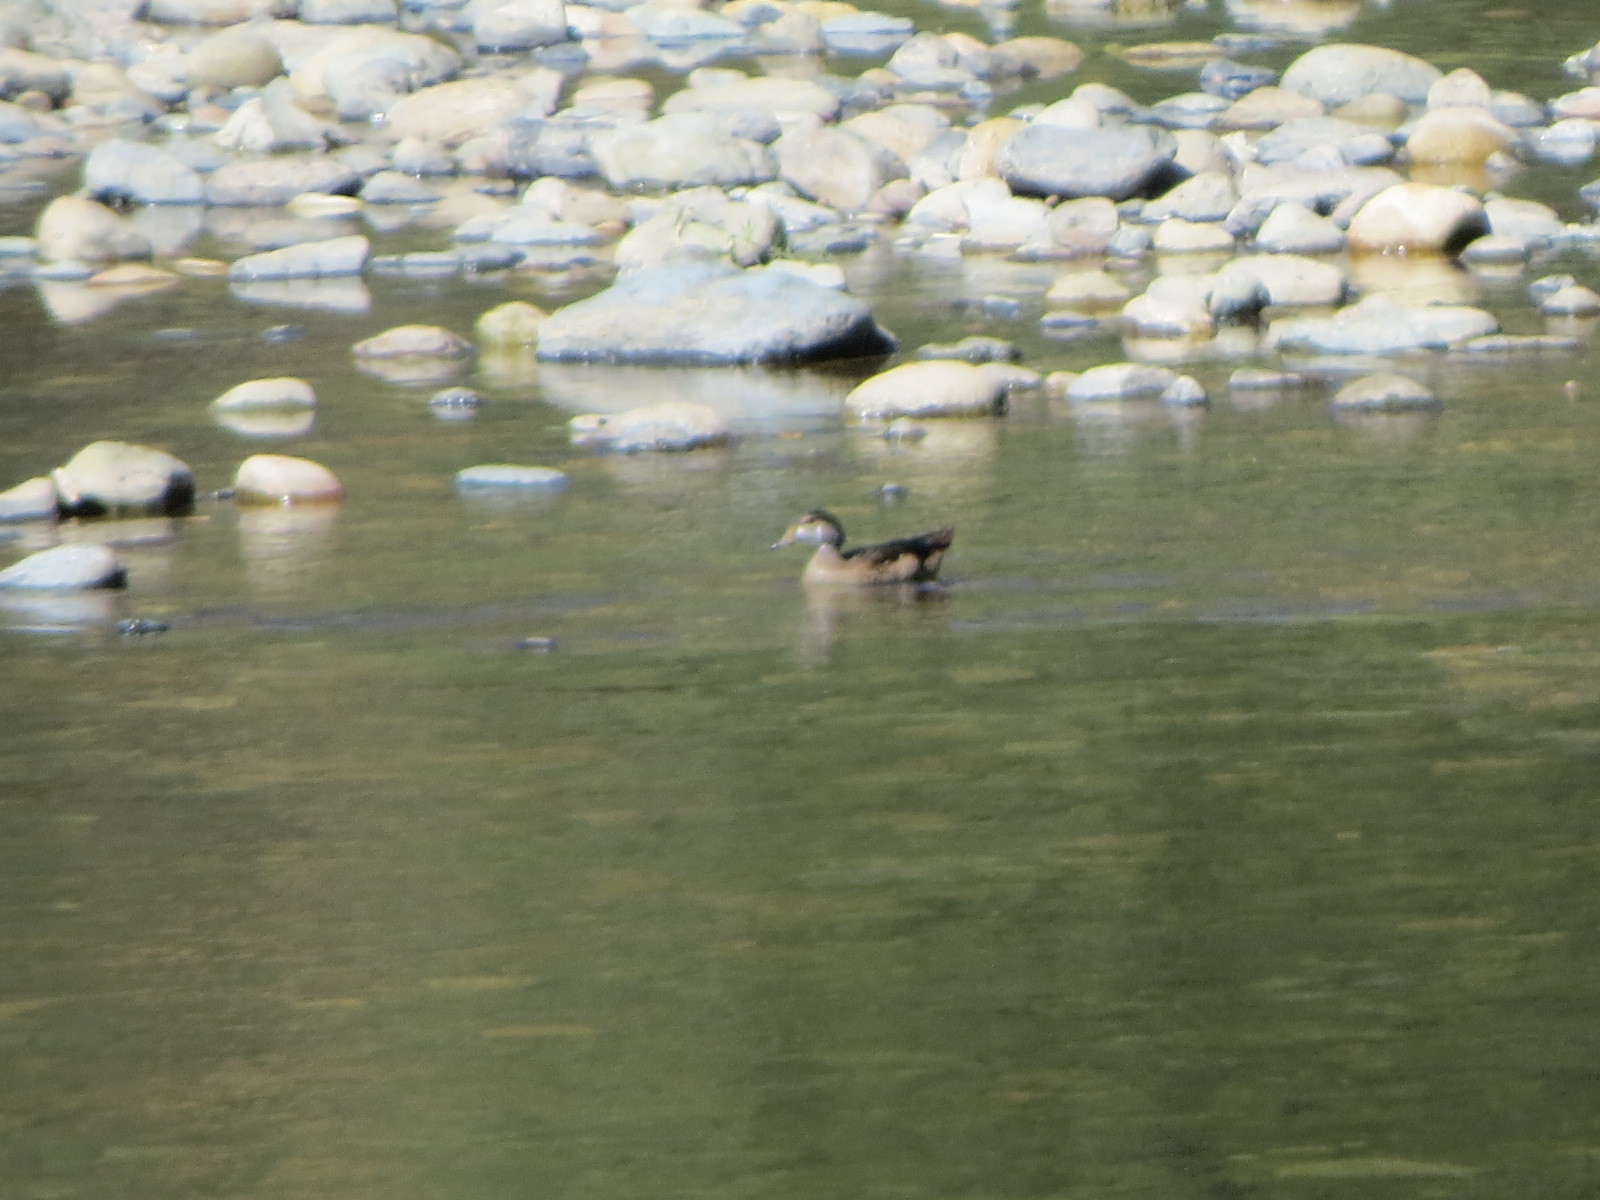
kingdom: Animalia
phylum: Chordata
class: Aves
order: Anseriformes
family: Anatidae
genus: Aix
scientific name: Aix sponsa
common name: Wood duck
